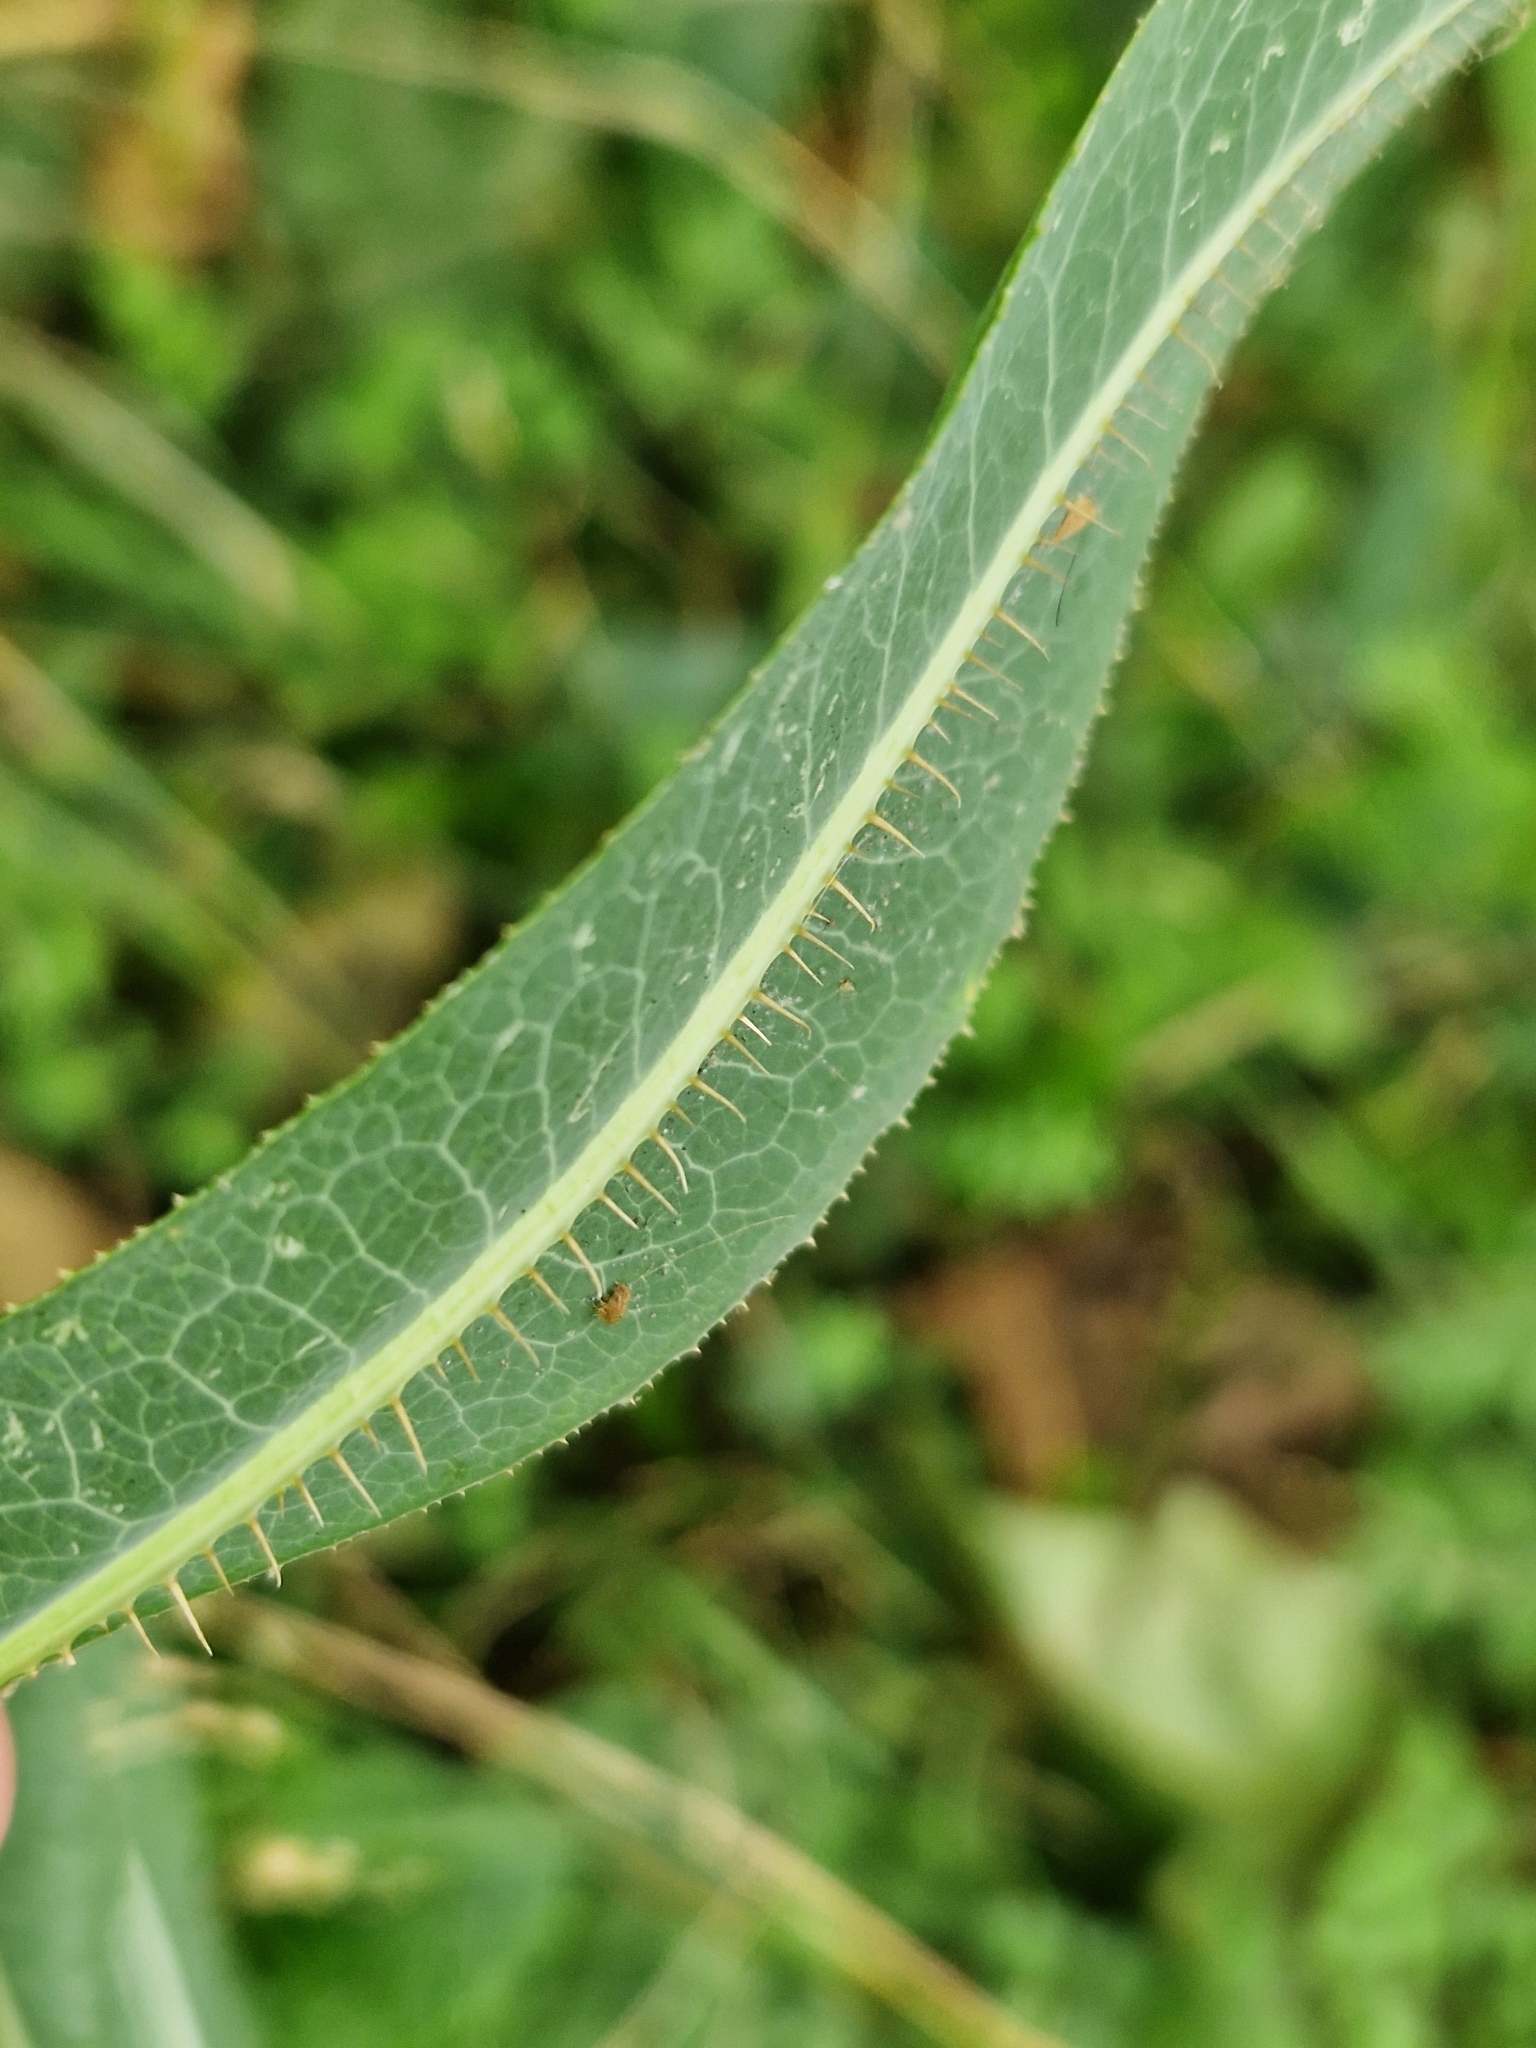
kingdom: Plantae
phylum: Tracheophyta
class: Magnoliopsida
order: Asterales
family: Asteraceae
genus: Lactuca
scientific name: Lactuca serriola
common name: Prickly lettuce
